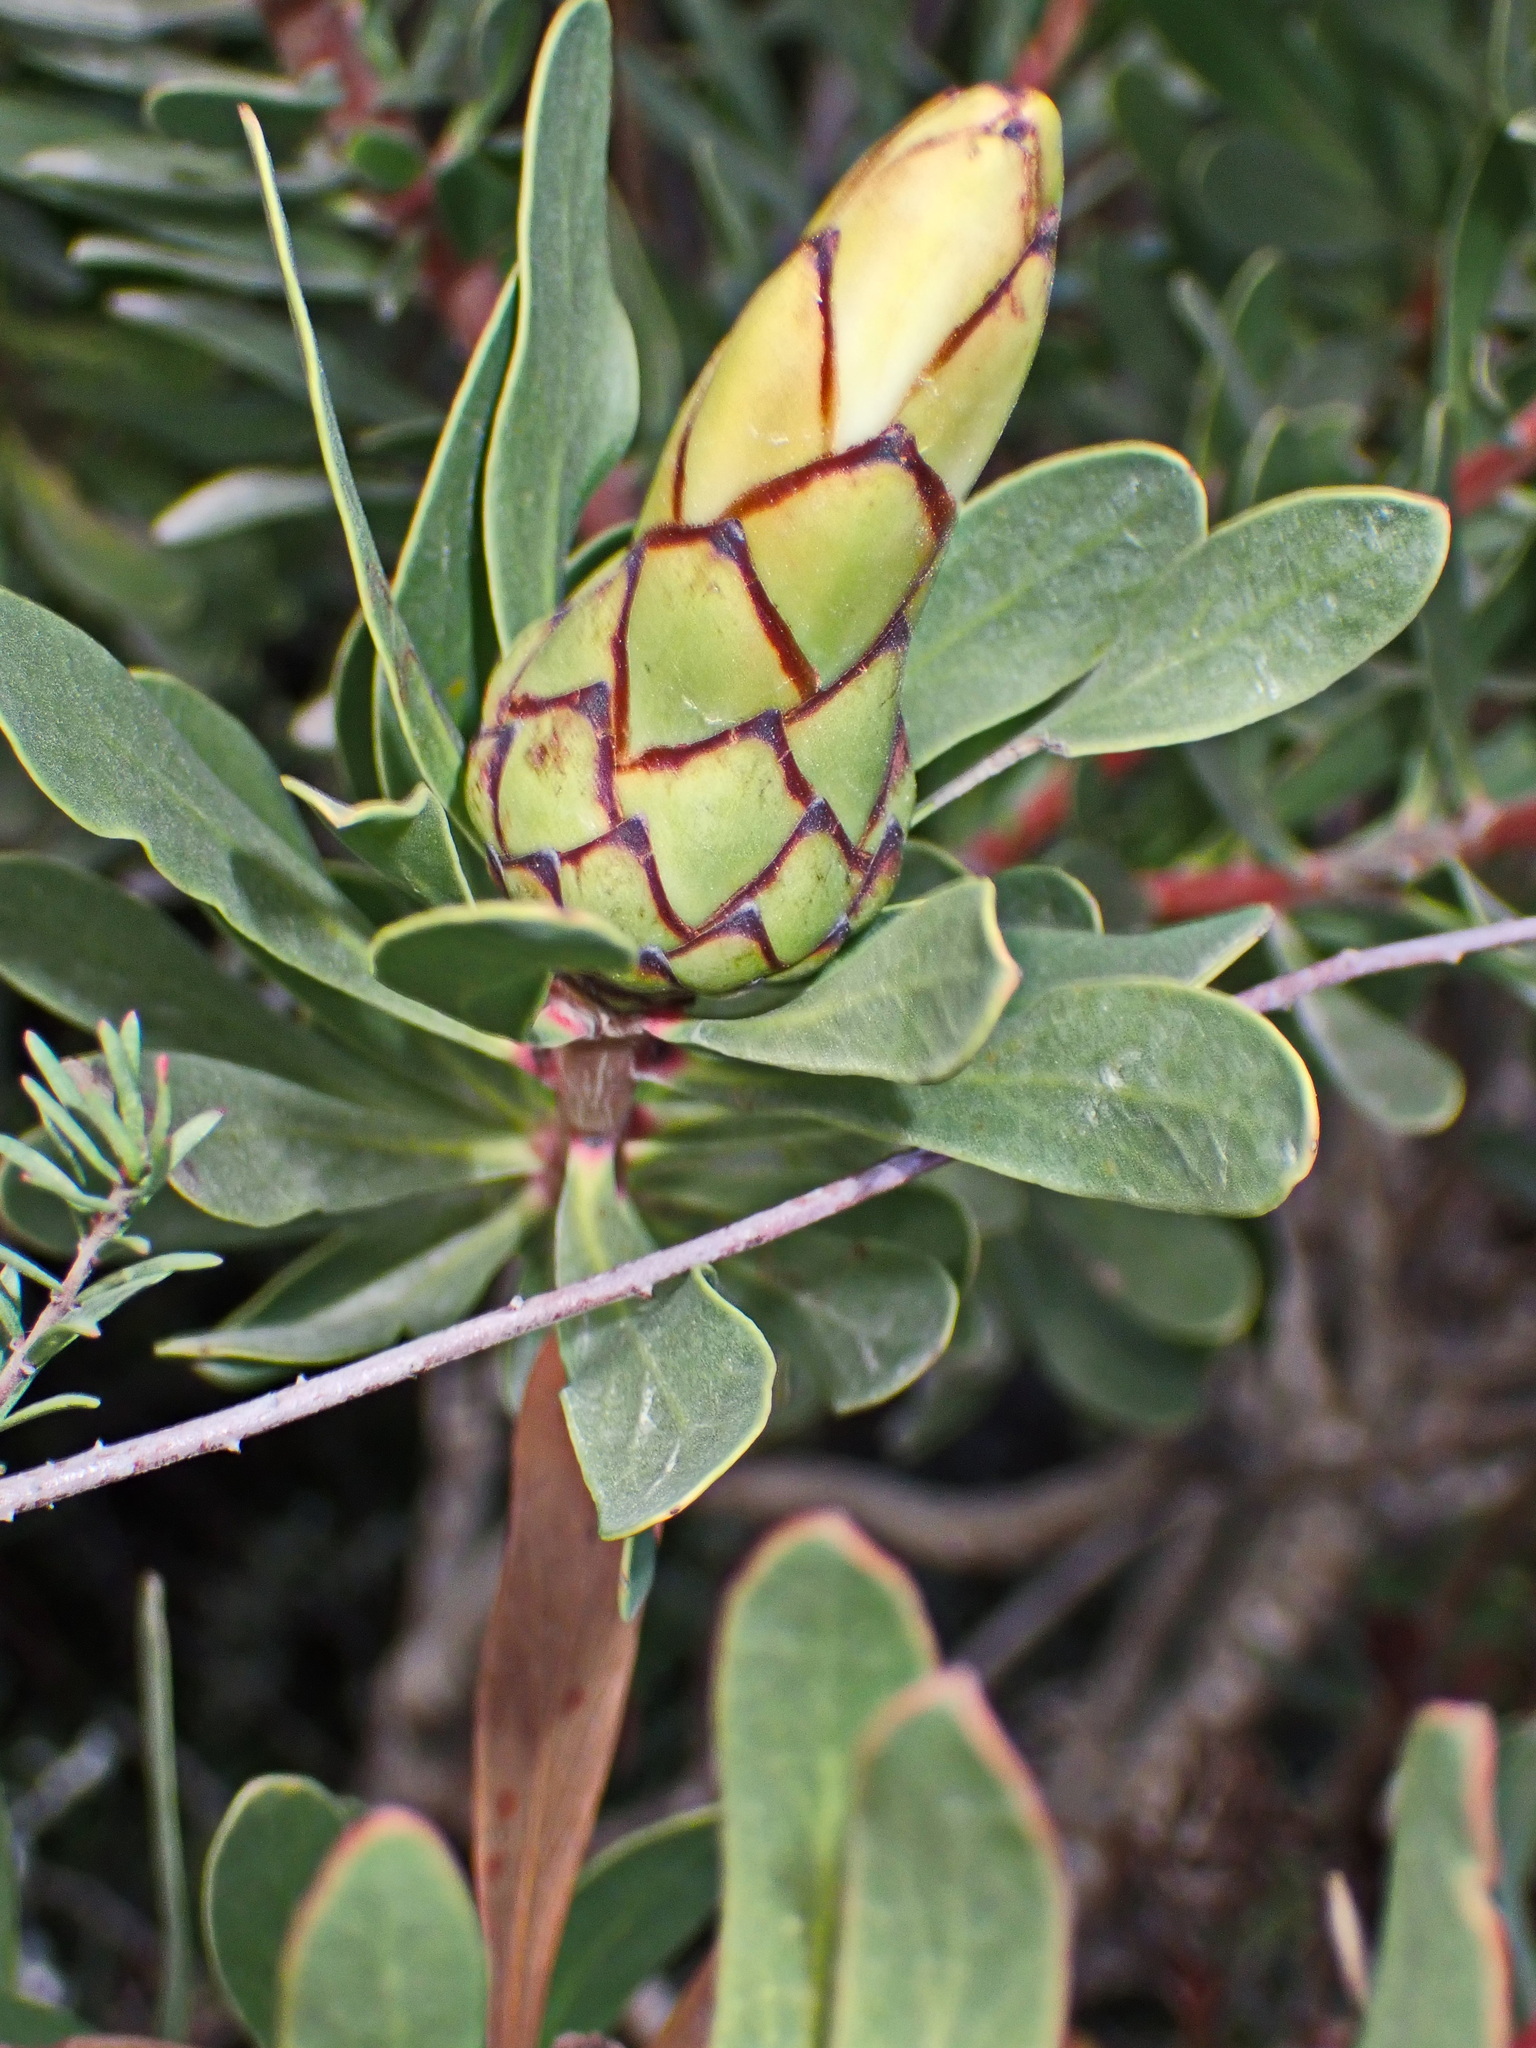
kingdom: Plantae
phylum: Tracheophyta
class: Magnoliopsida
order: Proteales
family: Proteaceae
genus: Protea
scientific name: Protea lanceolata
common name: Lance-leaved protea
